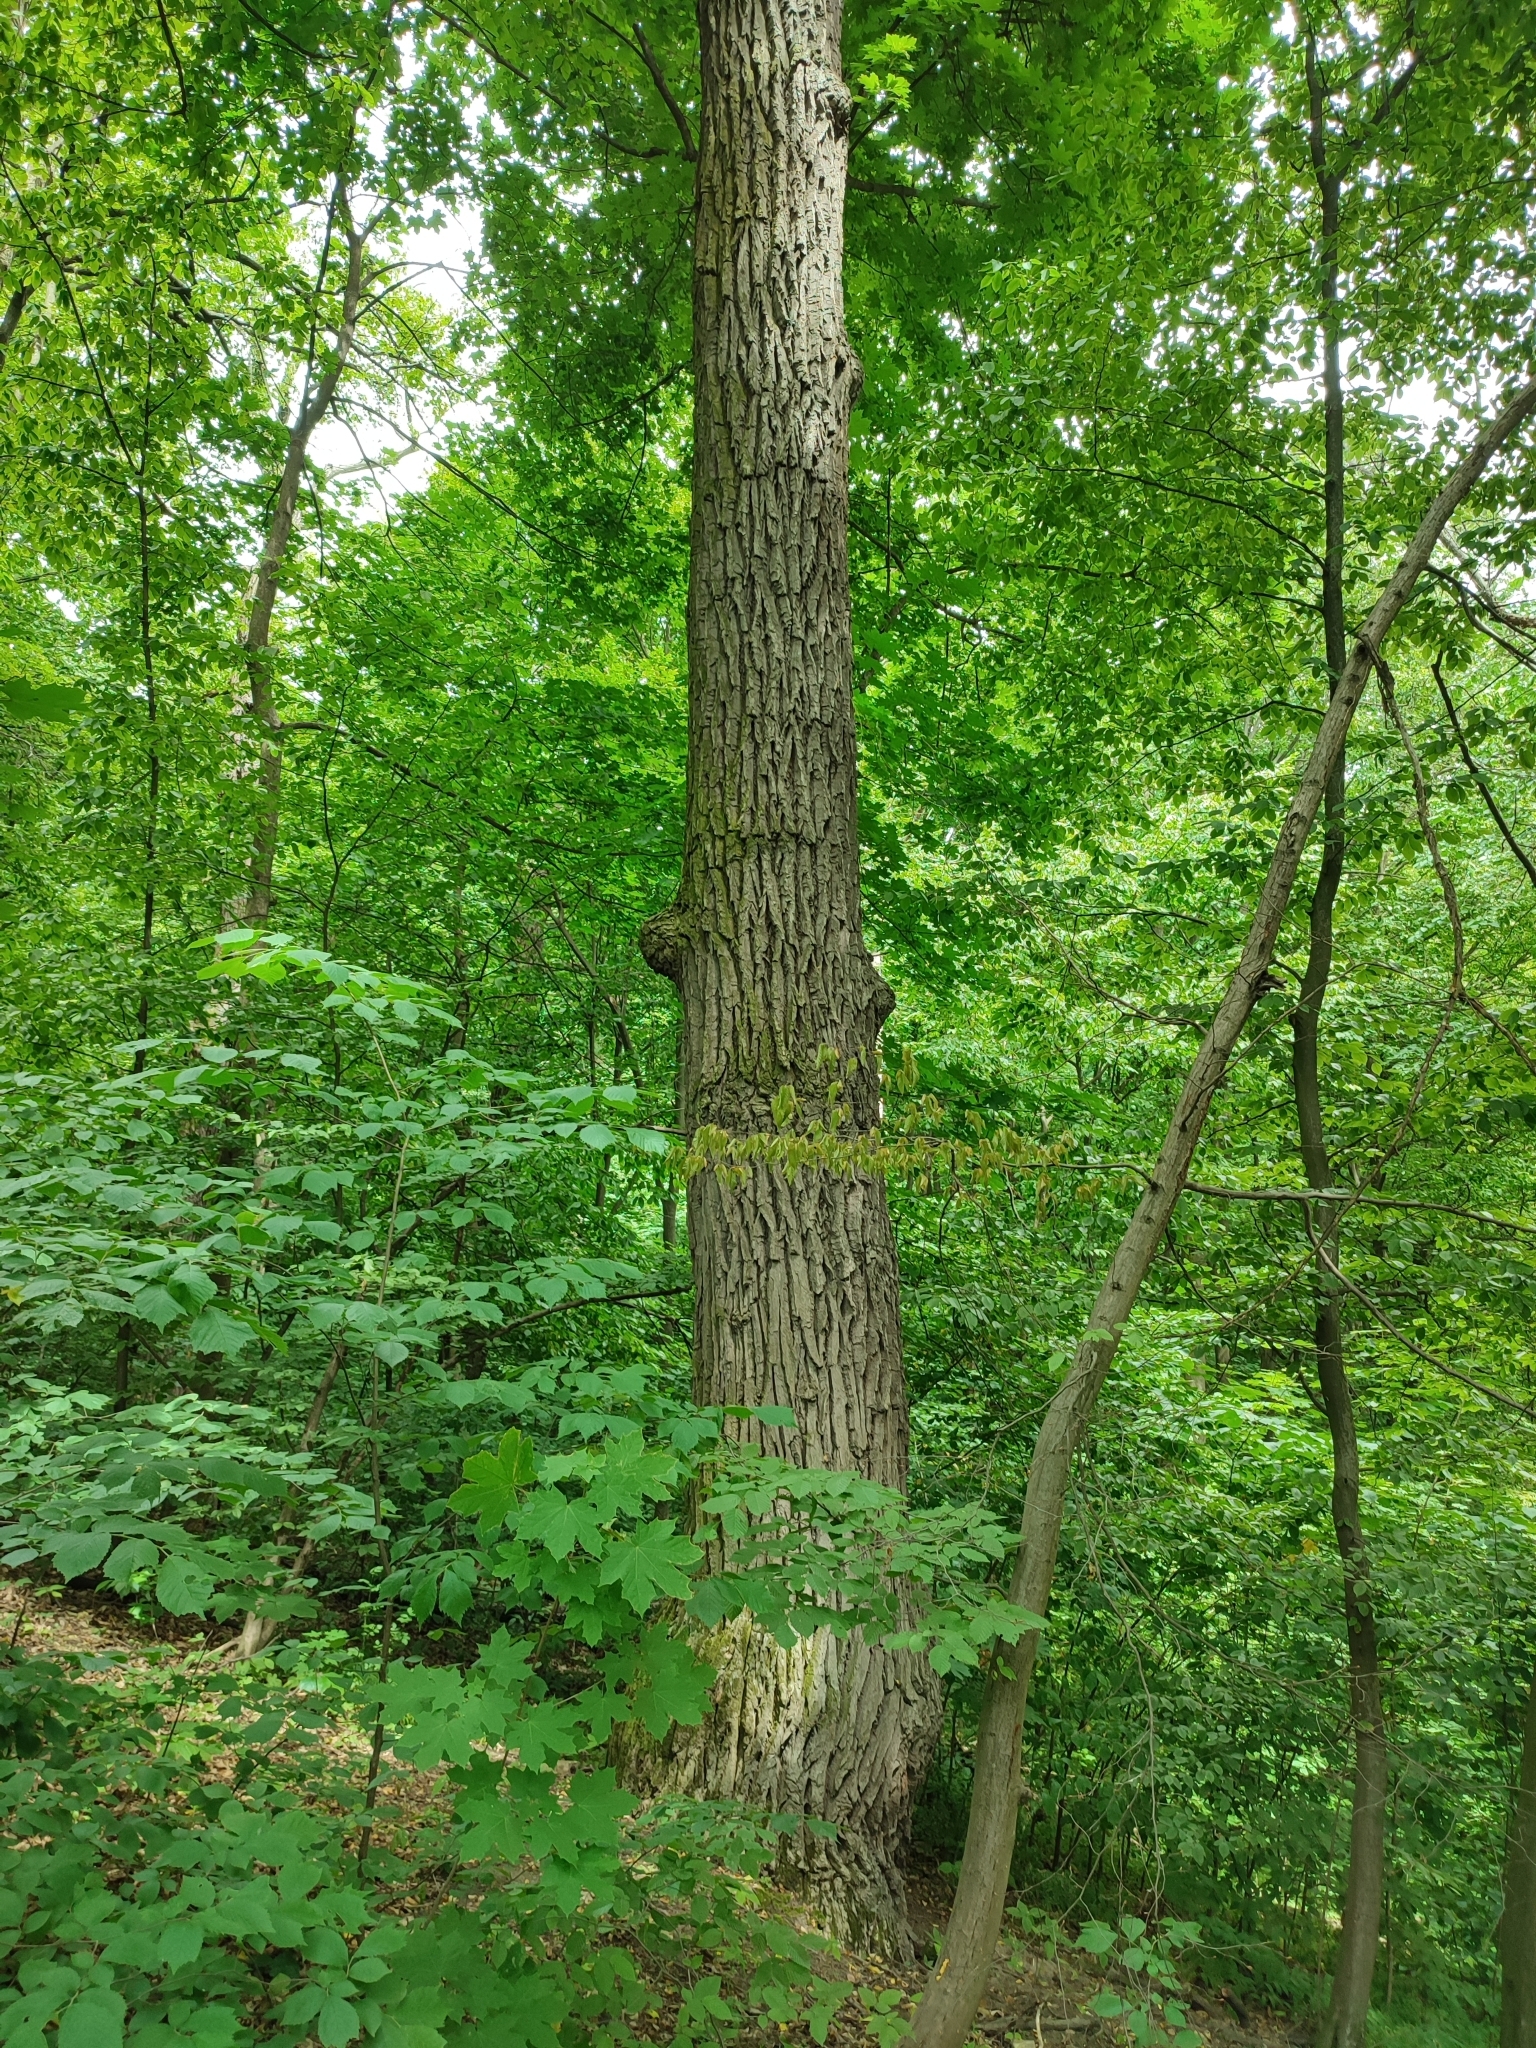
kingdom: Plantae
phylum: Tracheophyta
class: Magnoliopsida
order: Fagales
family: Fagaceae
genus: Quercus
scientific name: Quercus robur
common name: Pedunculate oak
